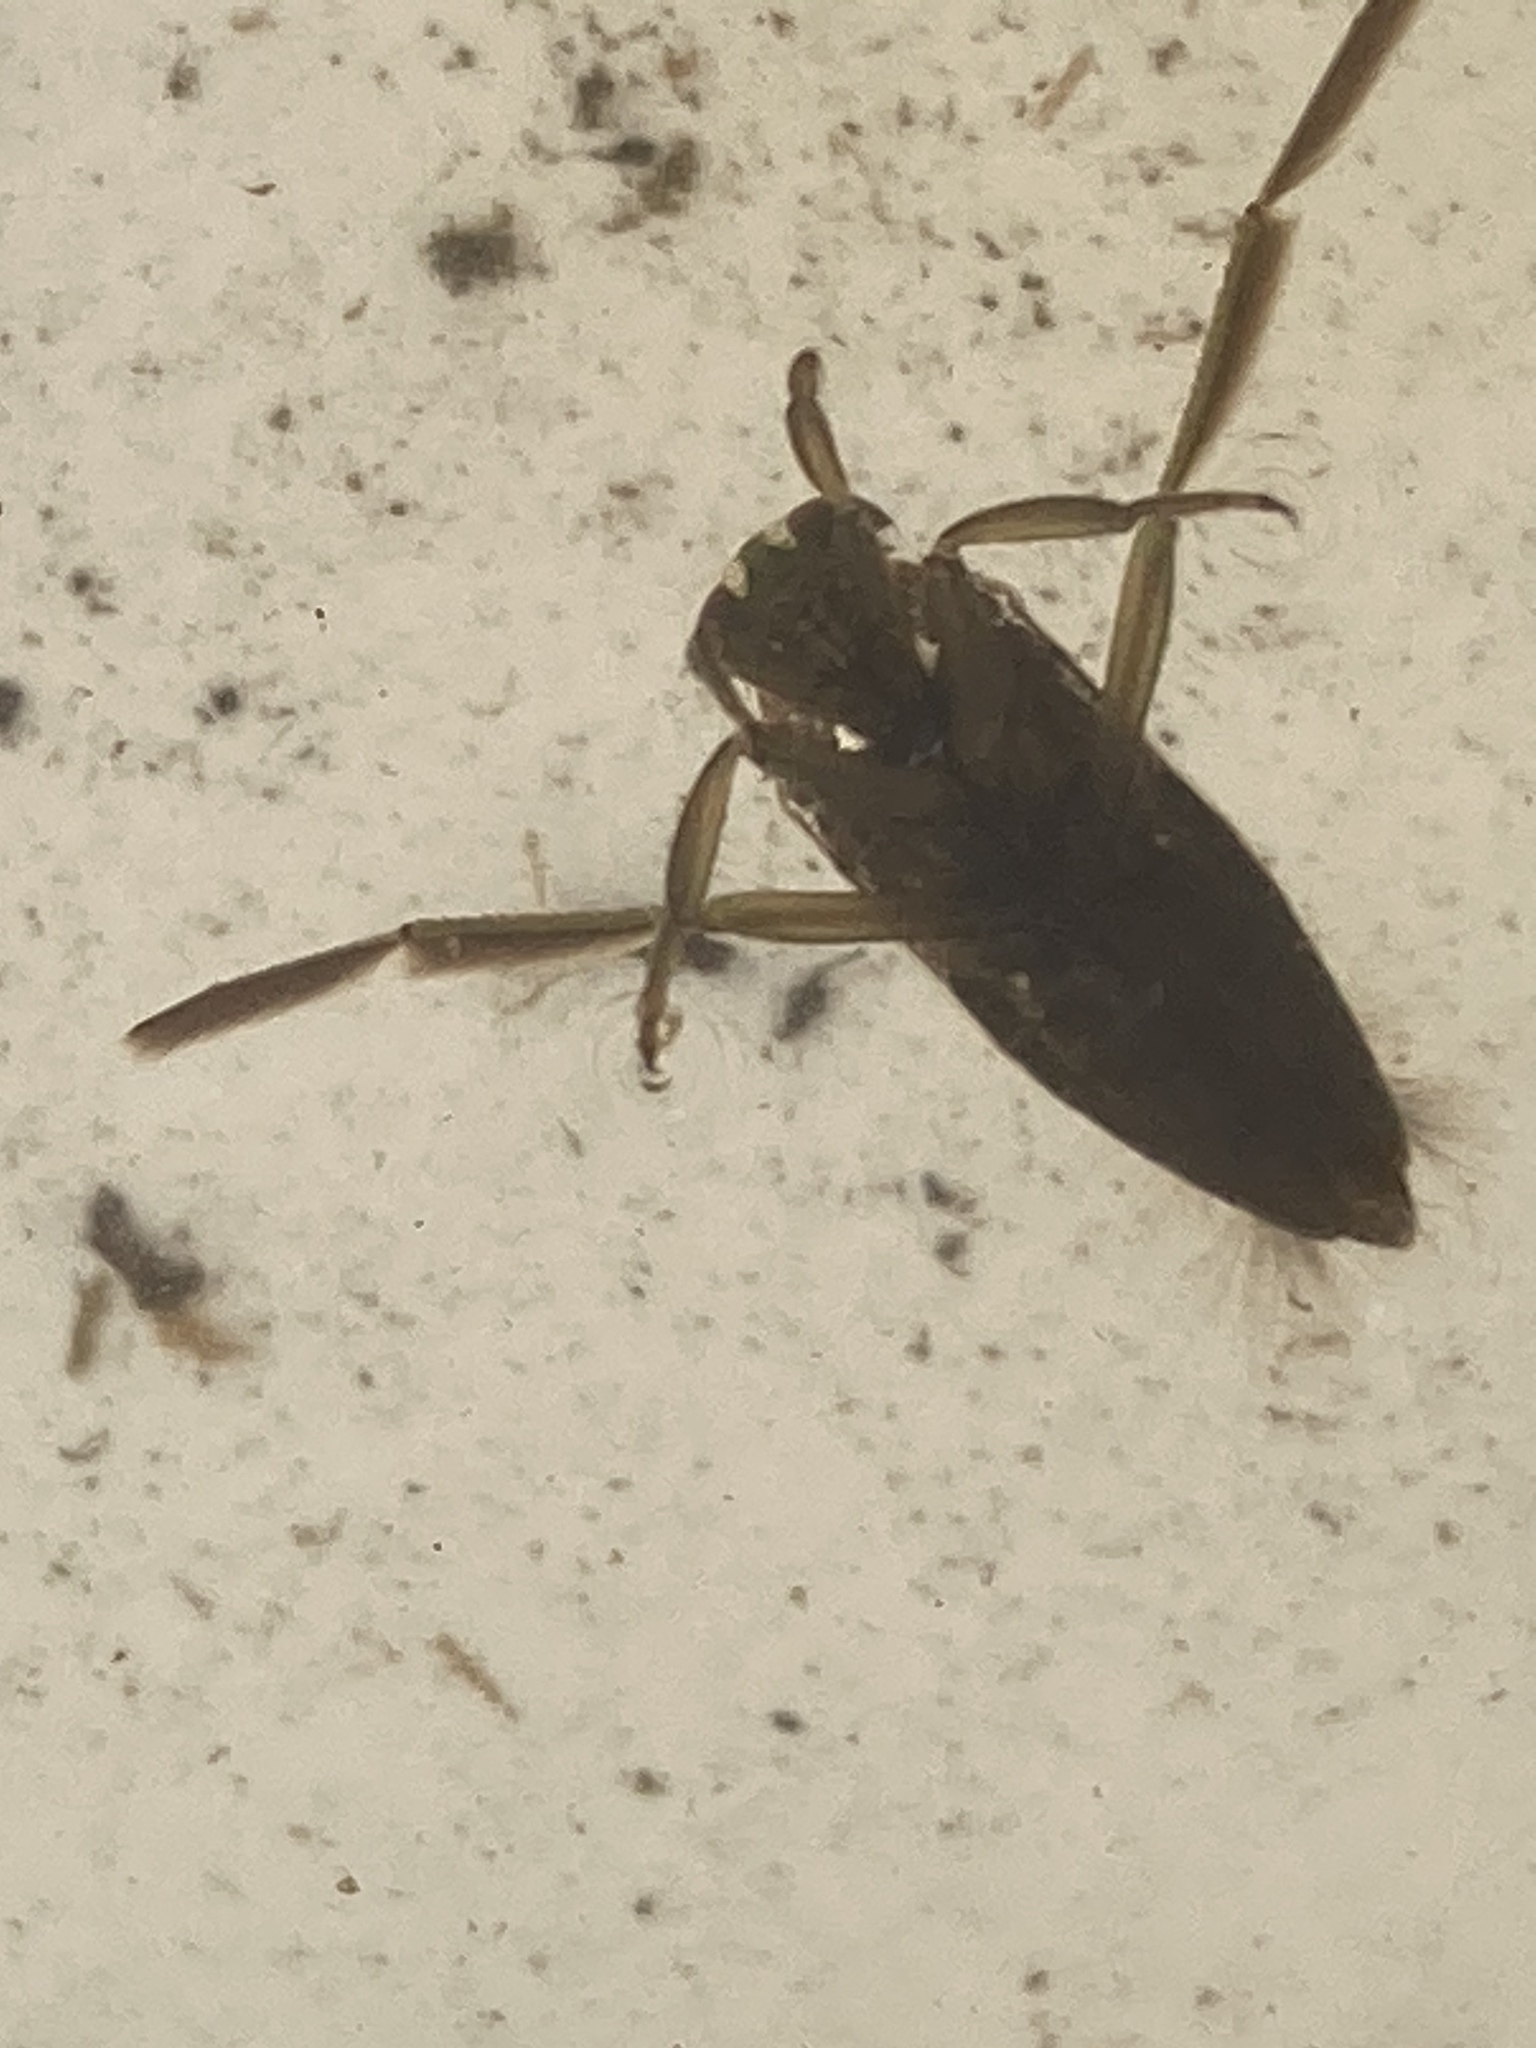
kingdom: Animalia
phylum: Arthropoda
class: Insecta
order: Hemiptera
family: Notonectidae
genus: Notonecta
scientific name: Notonecta
